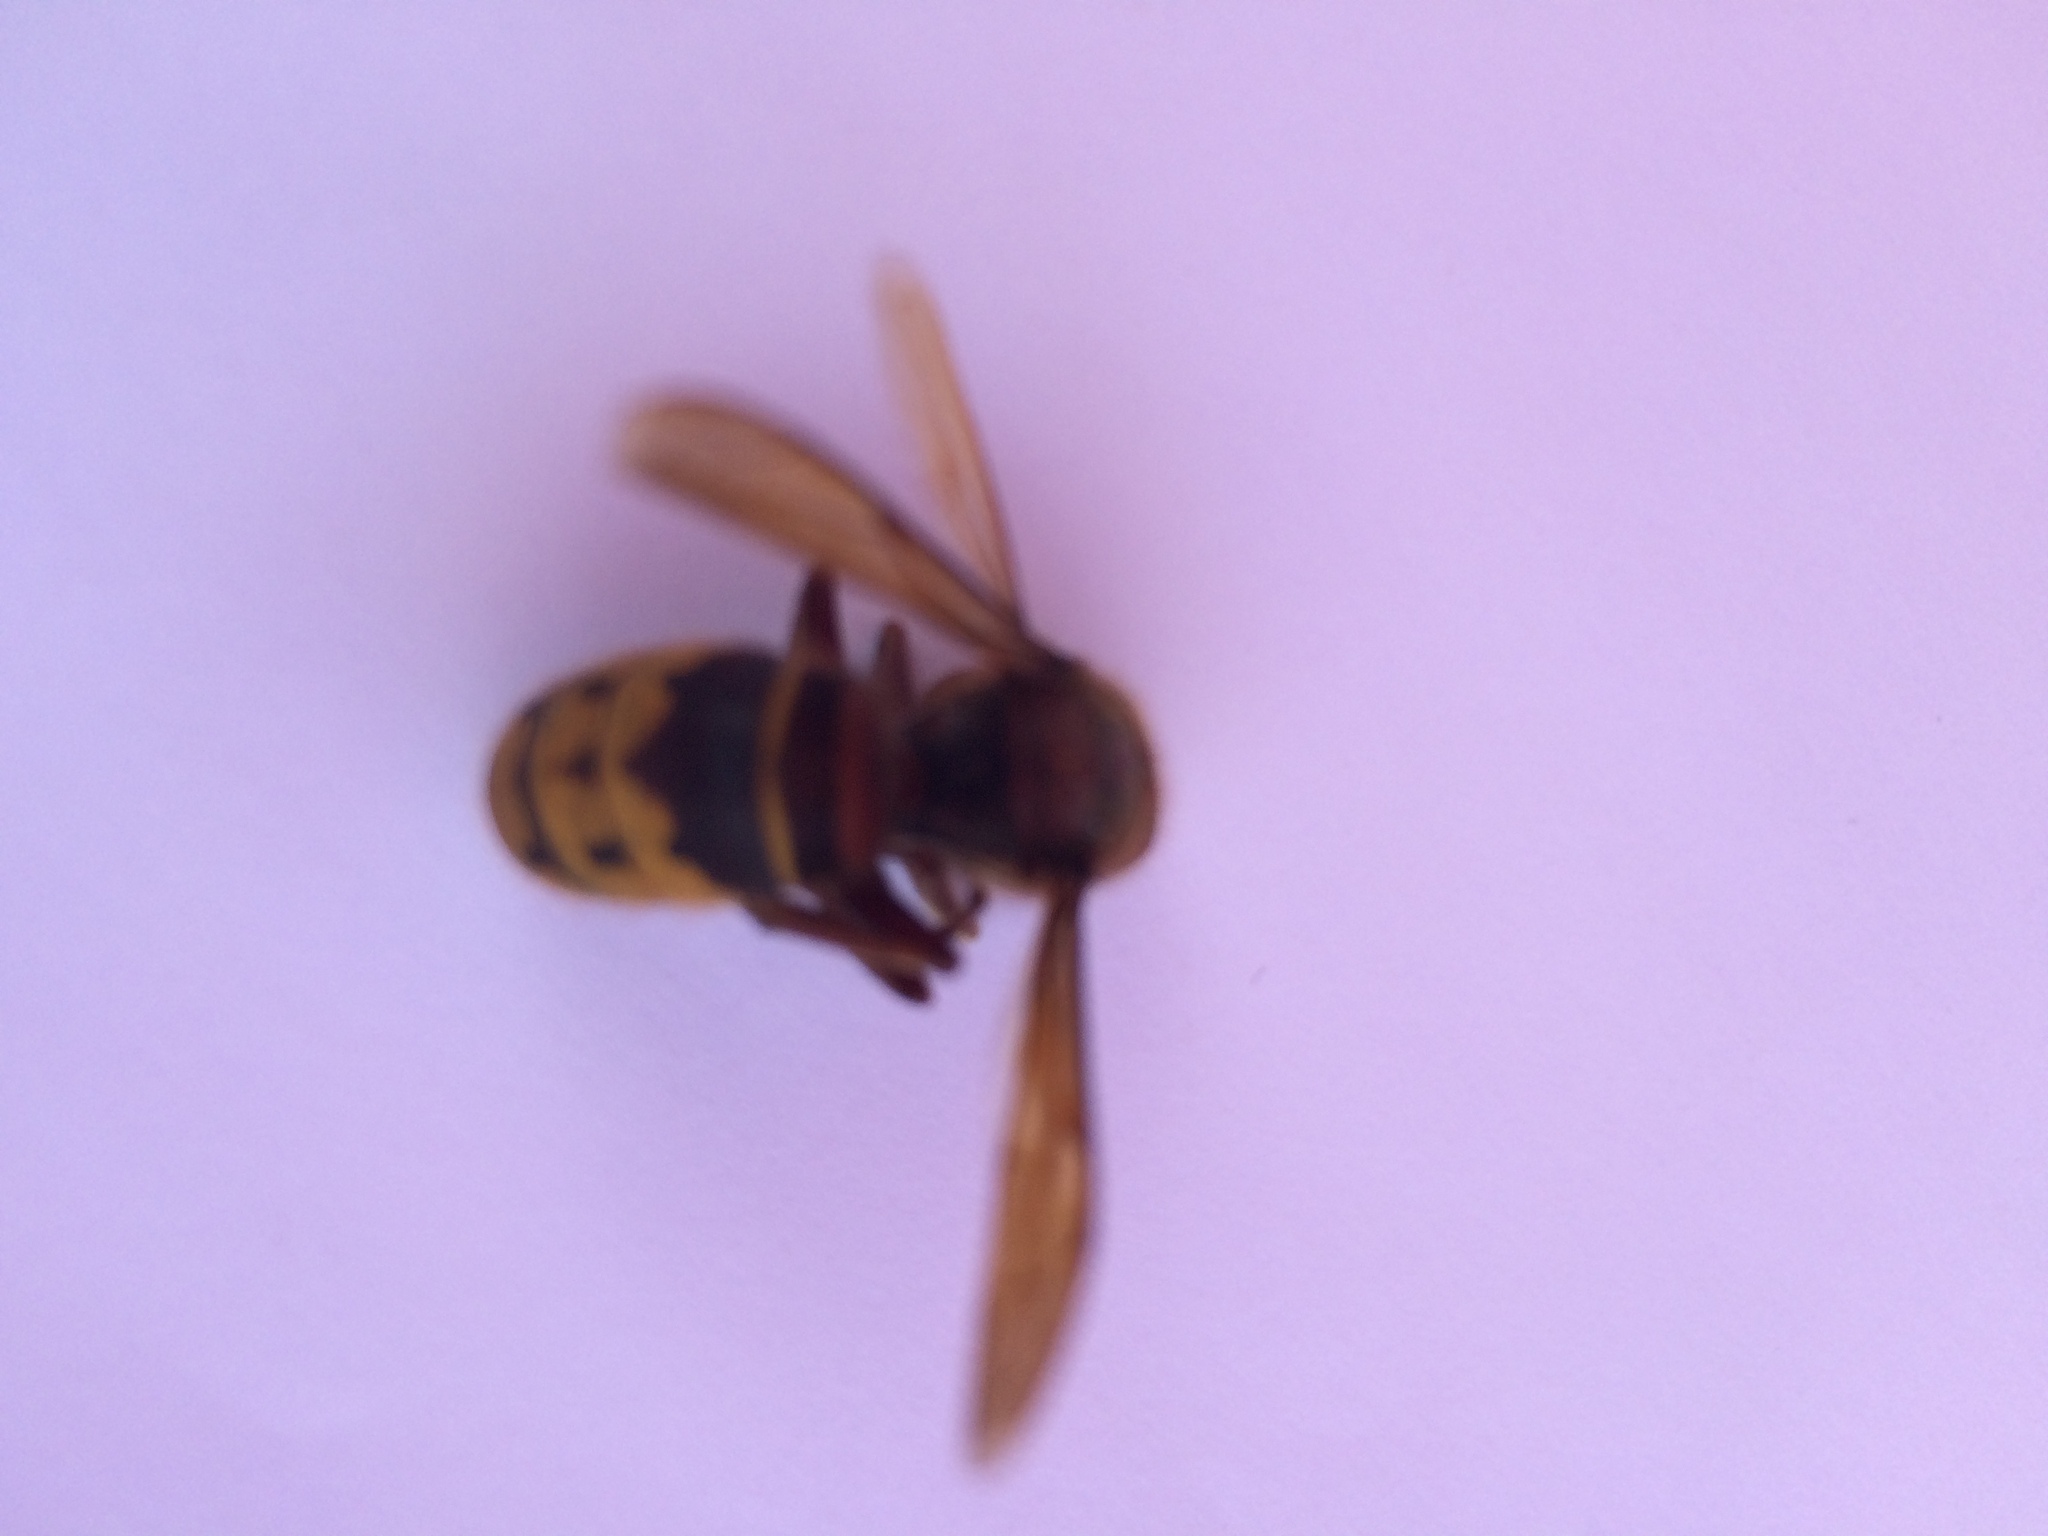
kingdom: Animalia
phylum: Arthropoda
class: Insecta
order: Hymenoptera
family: Vespidae
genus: Vespa
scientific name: Vespa crabro
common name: Hornet
